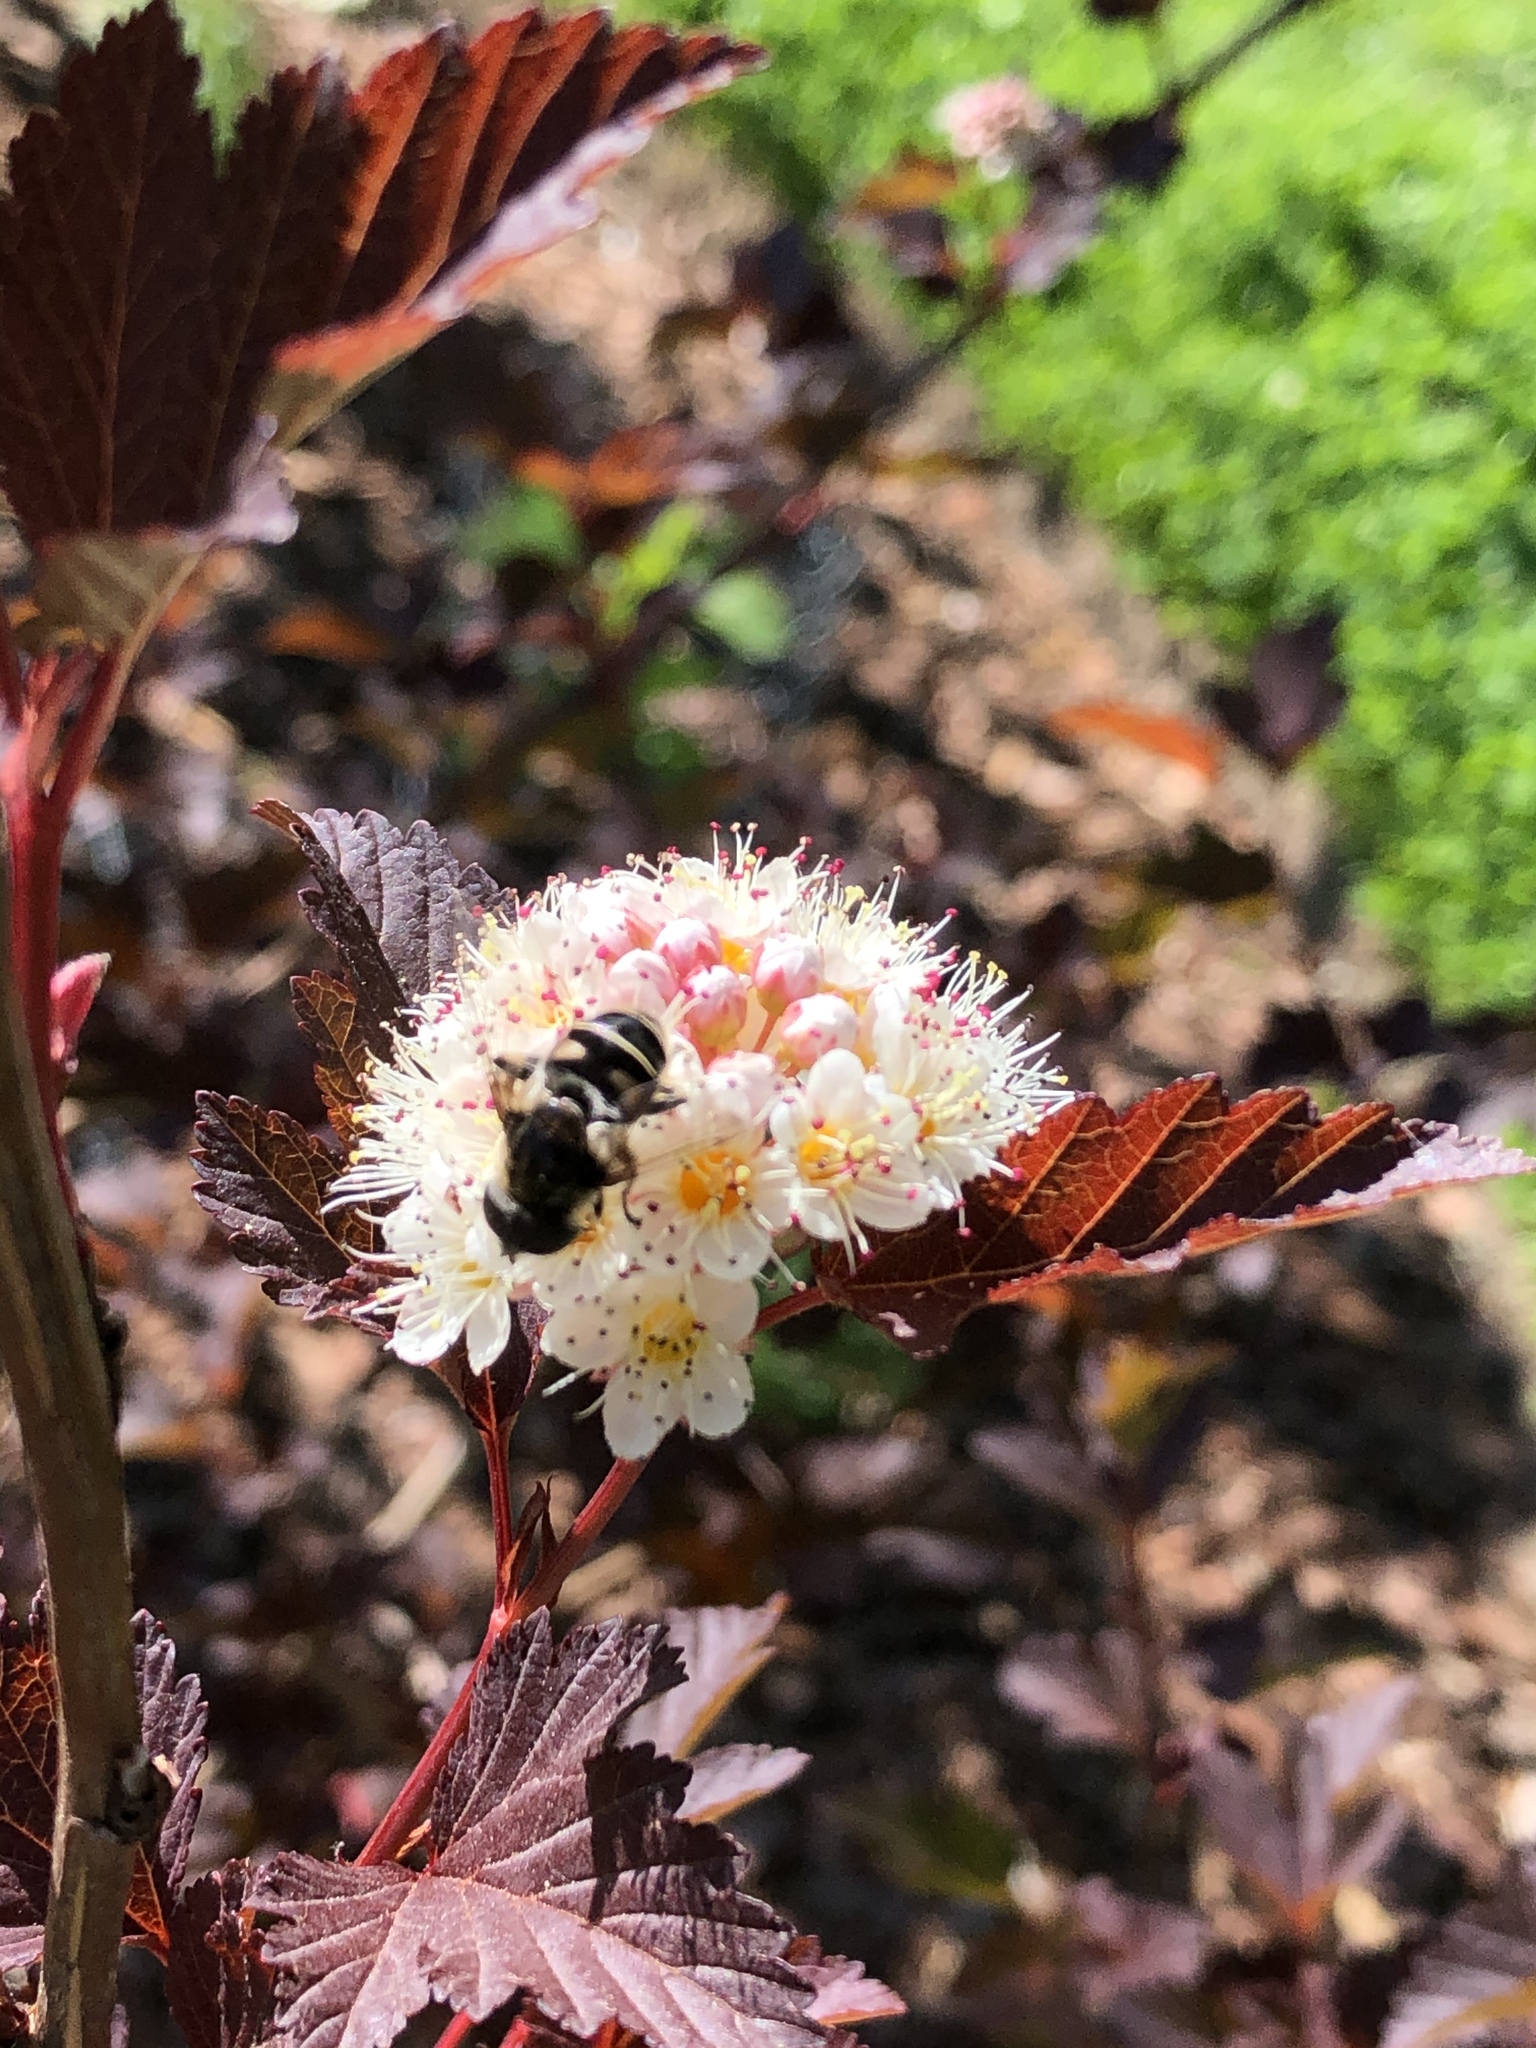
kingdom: Animalia
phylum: Arthropoda
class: Insecta
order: Diptera
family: Syrphidae
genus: Eristalis
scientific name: Eristalis dimidiata
